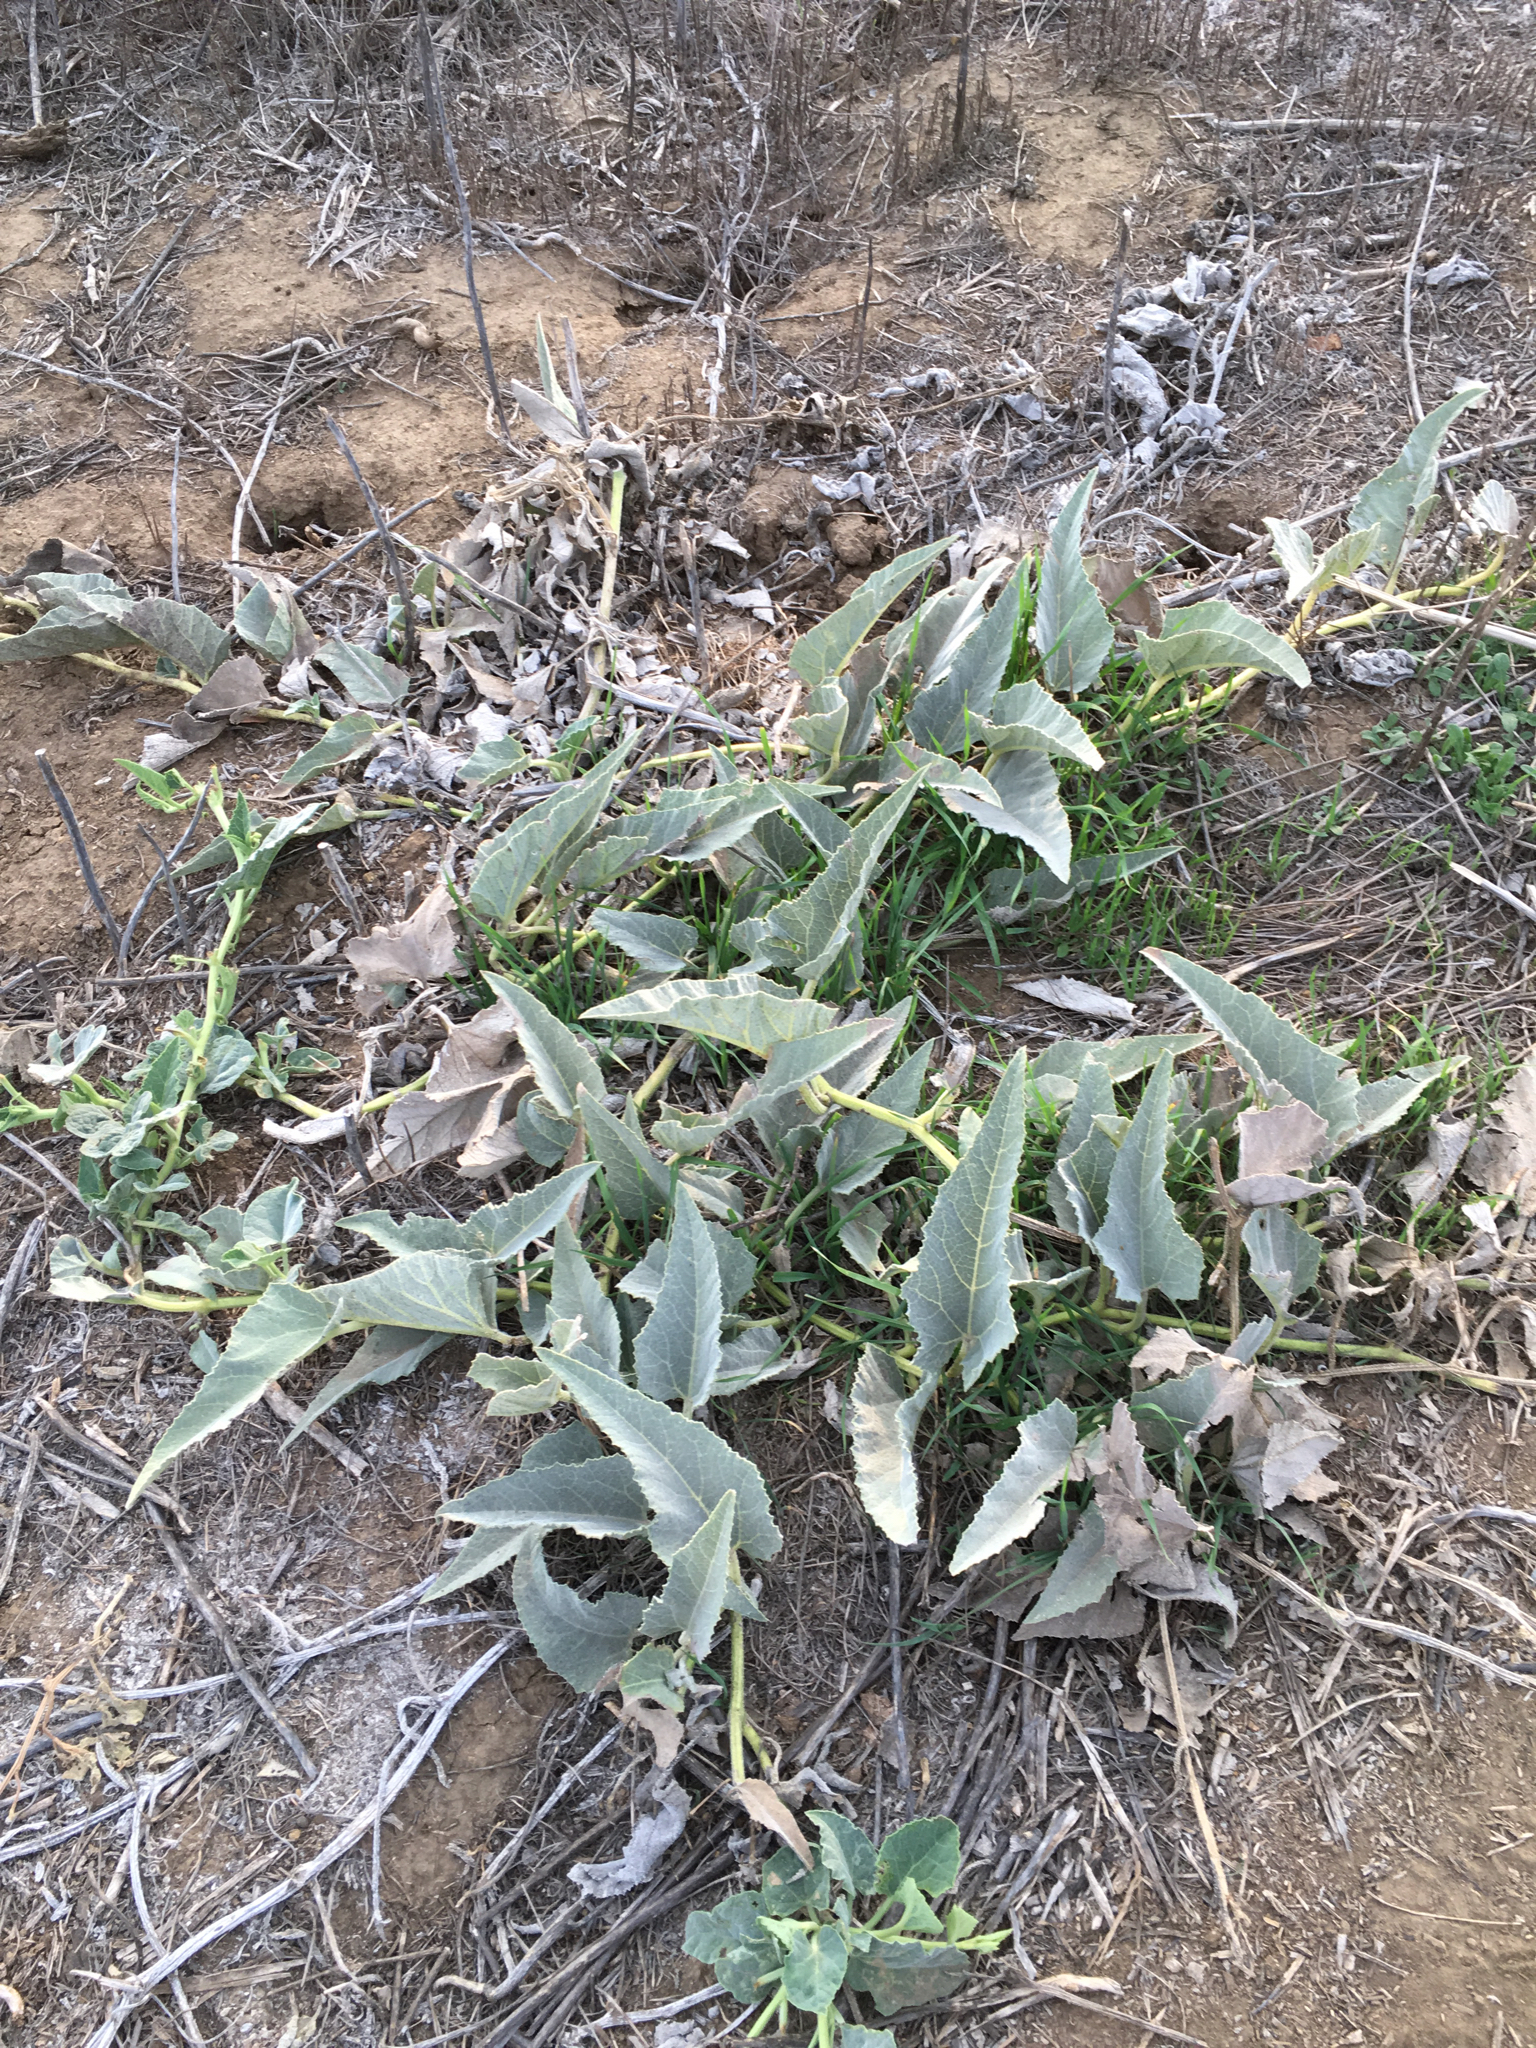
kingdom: Plantae
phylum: Tracheophyta
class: Magnoliopsida
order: Cucurbitales
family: Cucurbitaceae
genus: Cucurbita
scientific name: Cucurbita foetidissima
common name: Buffalo gourd
